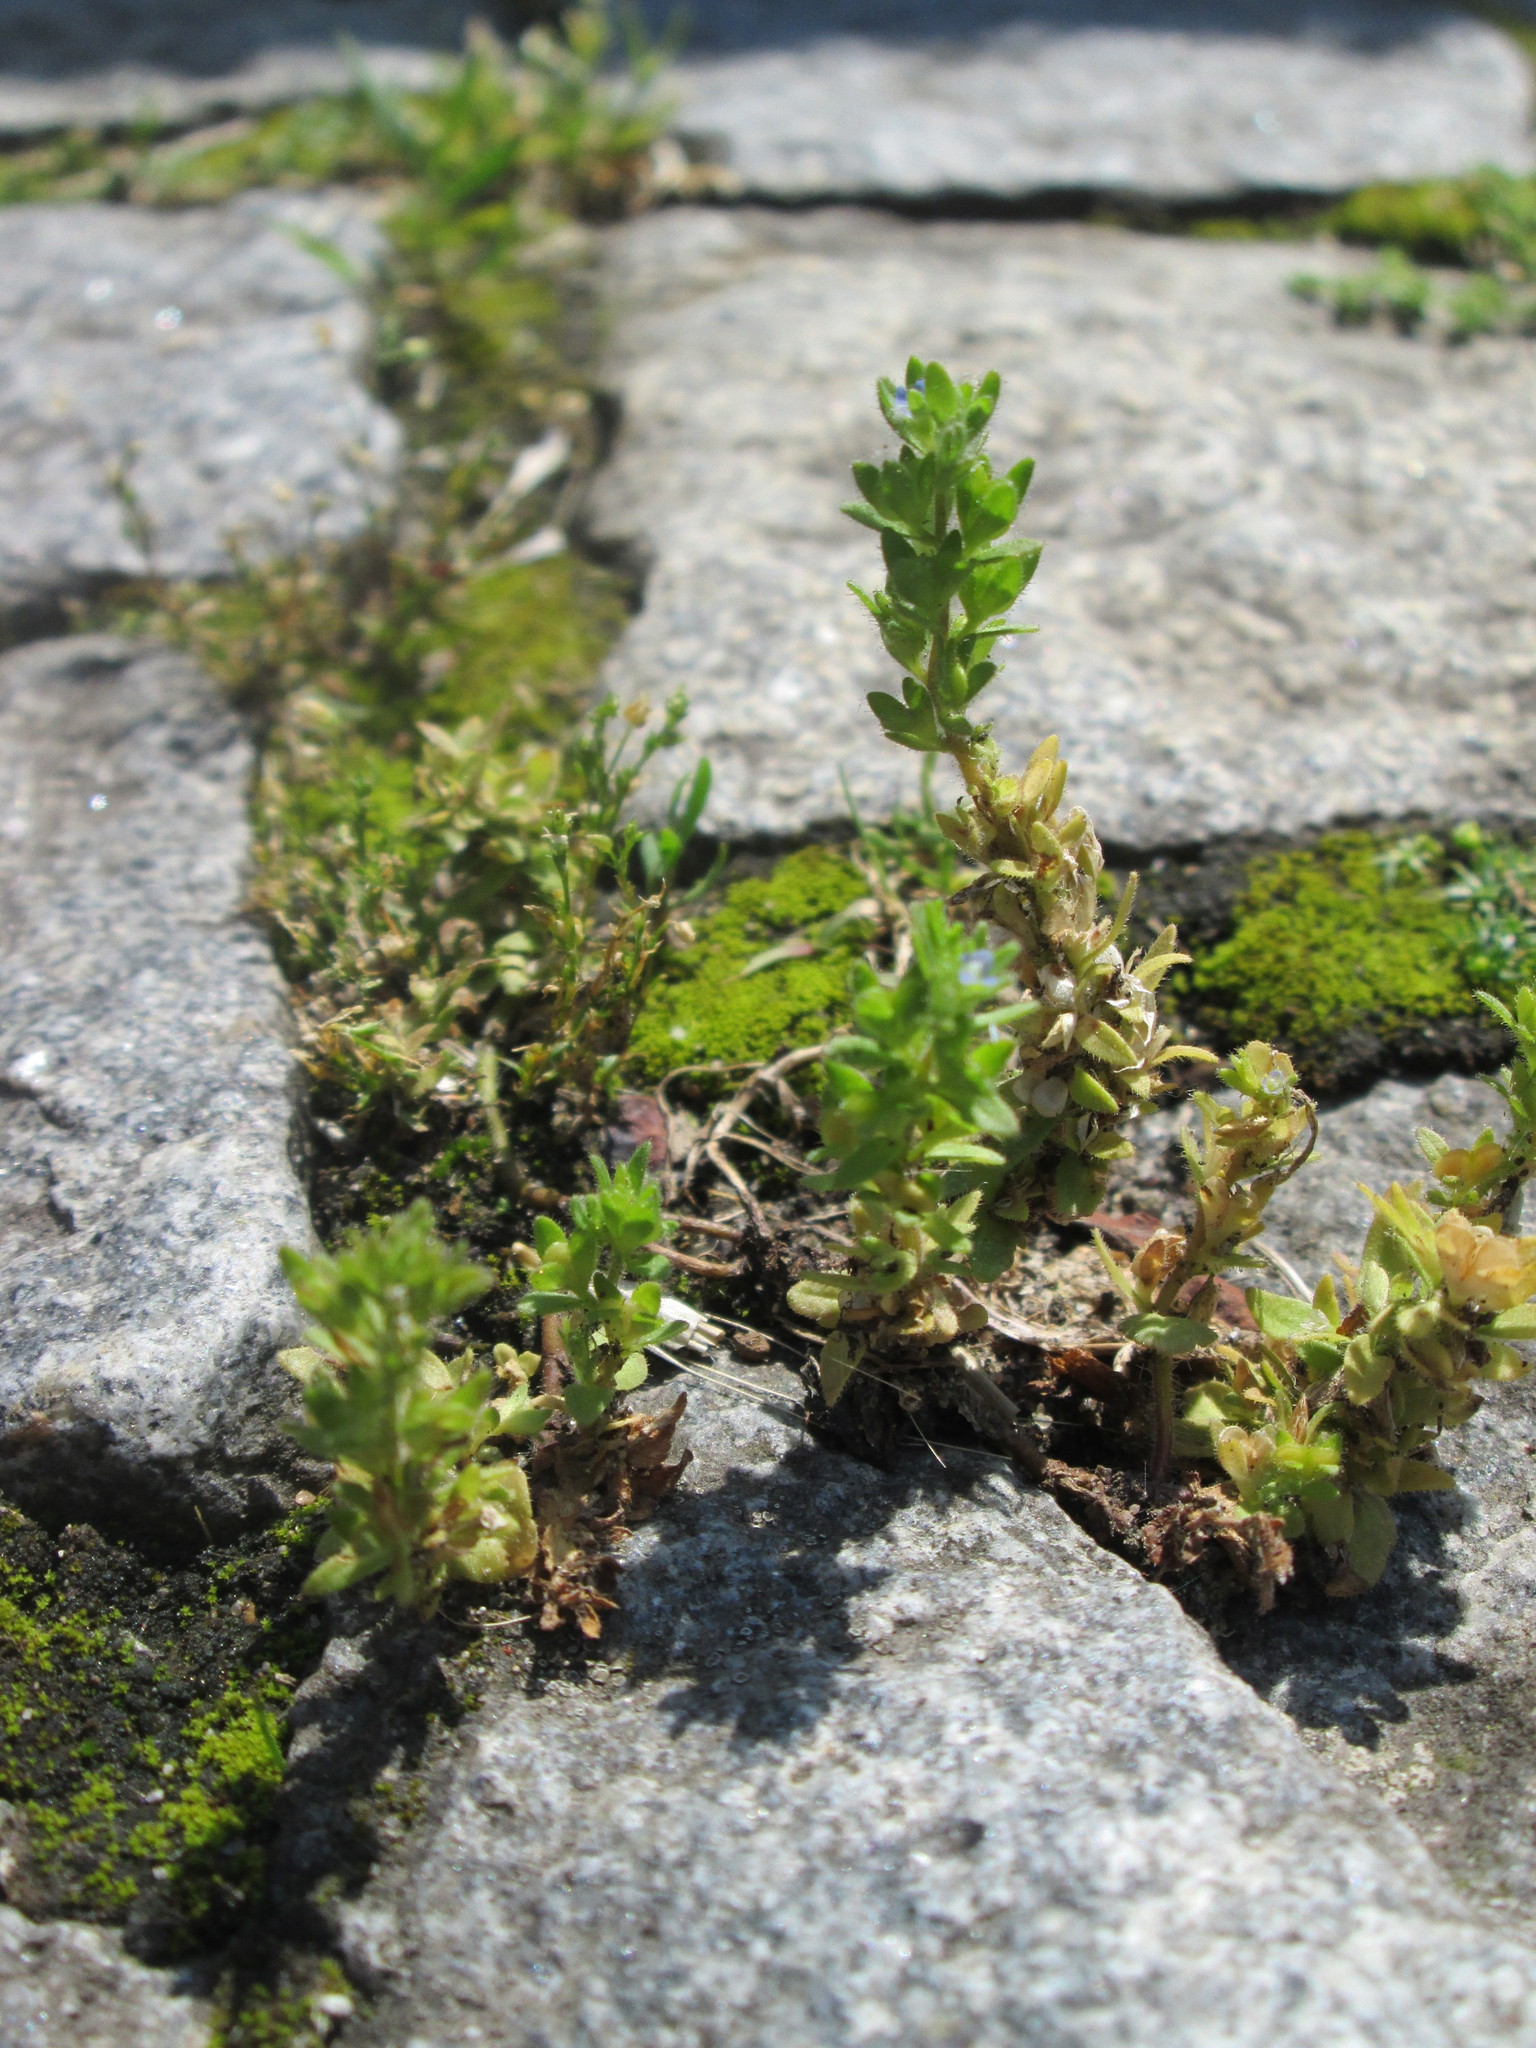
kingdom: Plantae
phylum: Tracheophyta
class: Magnoliopsida
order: Lamiales
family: Plantaginaceae
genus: Veronica
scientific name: Veronica arvensis
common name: Corn speedwell
